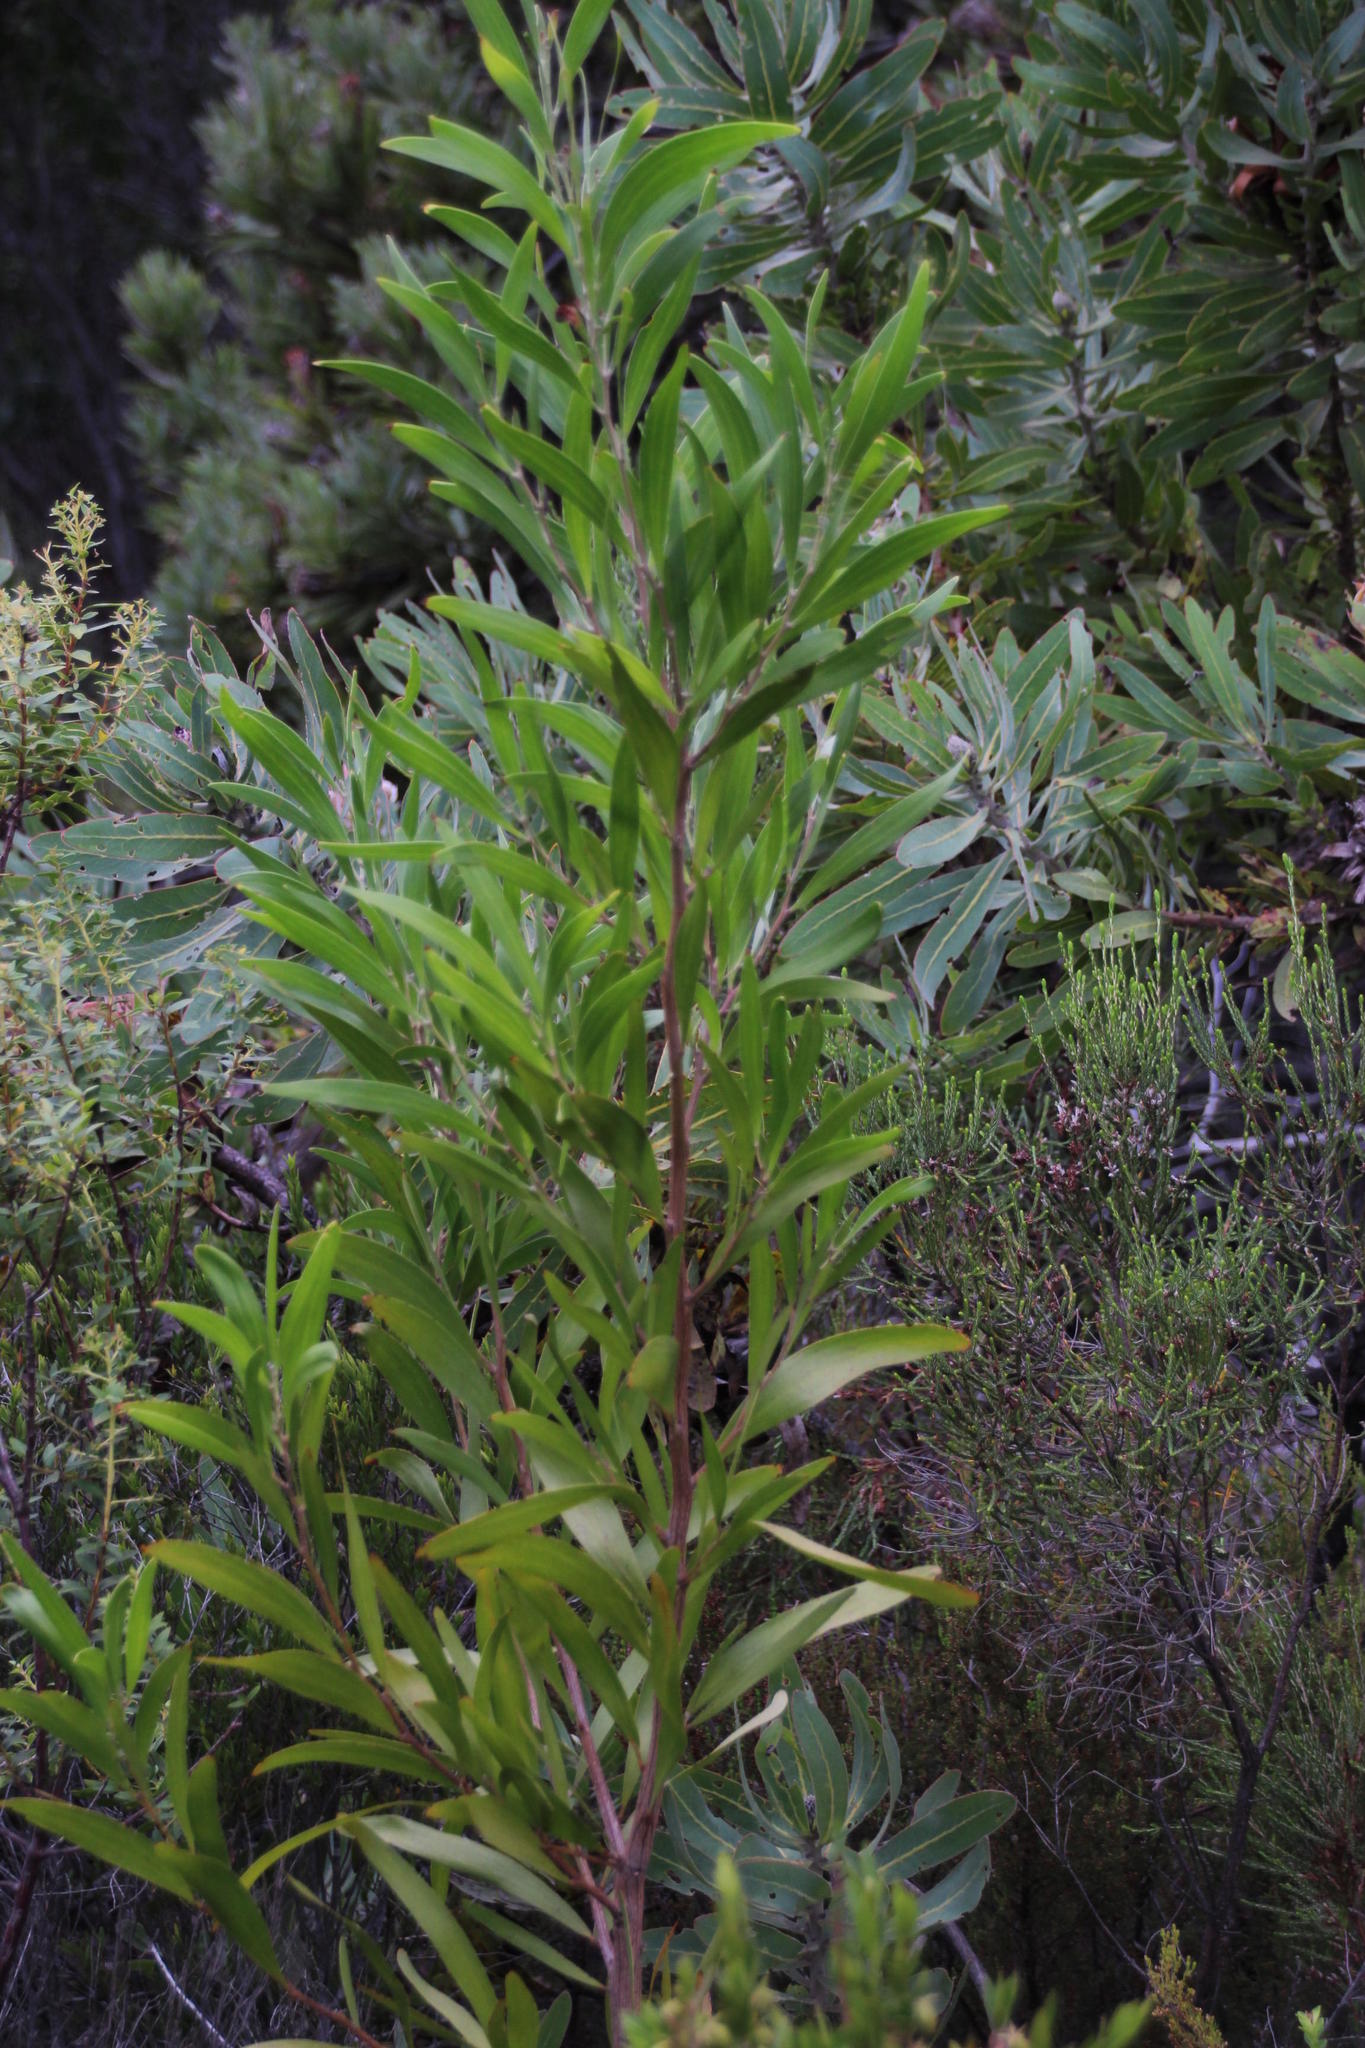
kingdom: Plantae
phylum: Tracheophyta
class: Magnoliopsida
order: Fabales
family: Fabaceae
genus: Acacia
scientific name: Acacia melanoxylon
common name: Blackwood
